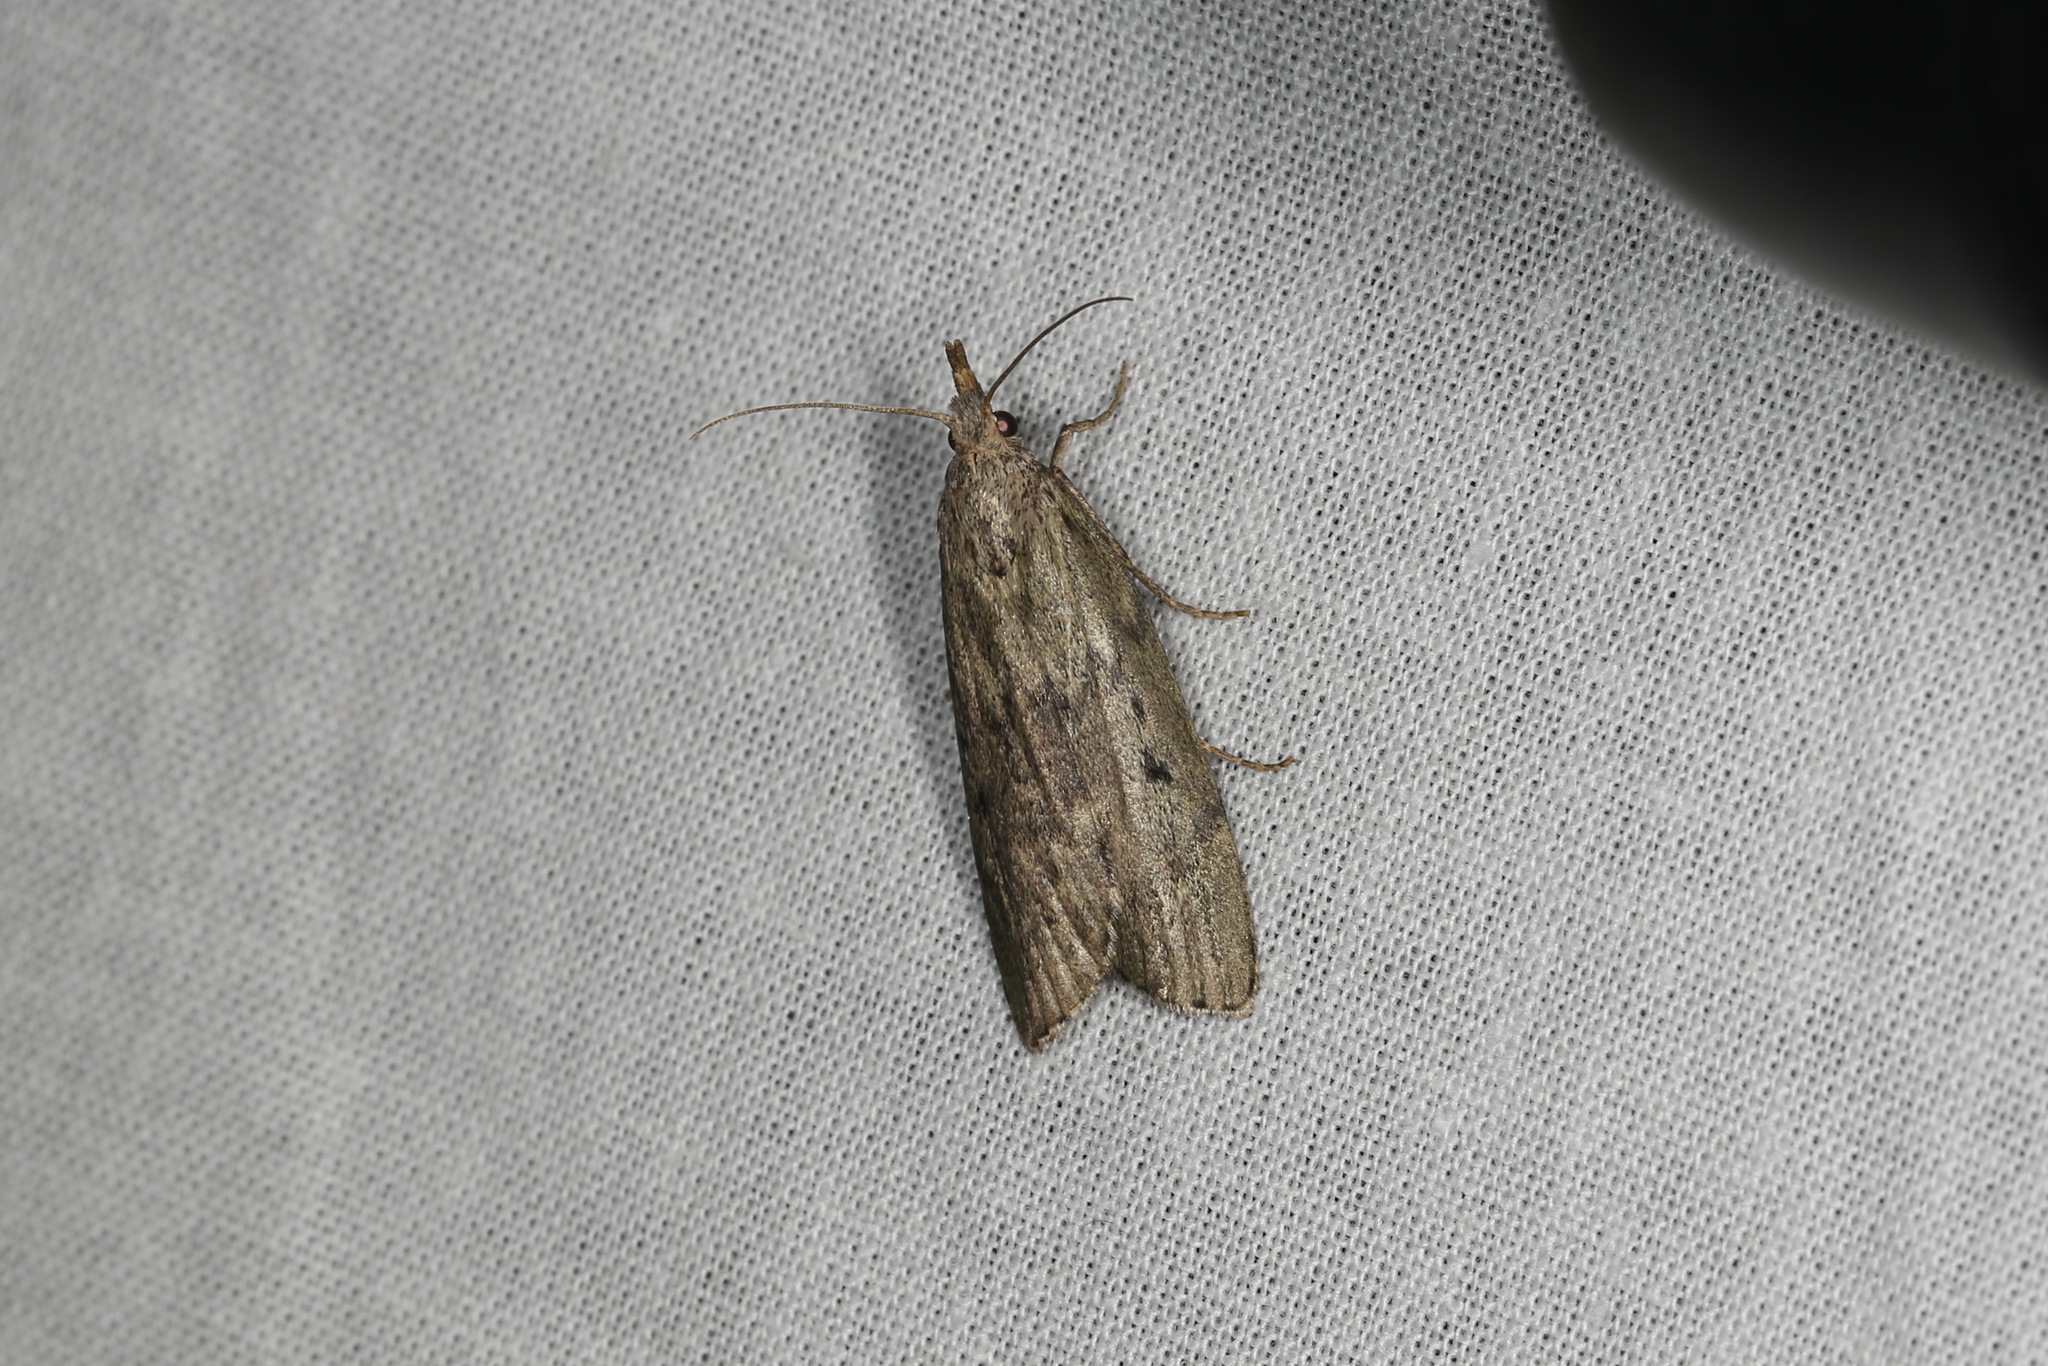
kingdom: Animalia
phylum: Arthropoda
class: Insecta
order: Lepidoptera
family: Pyralidae
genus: Aphomia
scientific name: Aphomia sociella
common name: Bee moth
